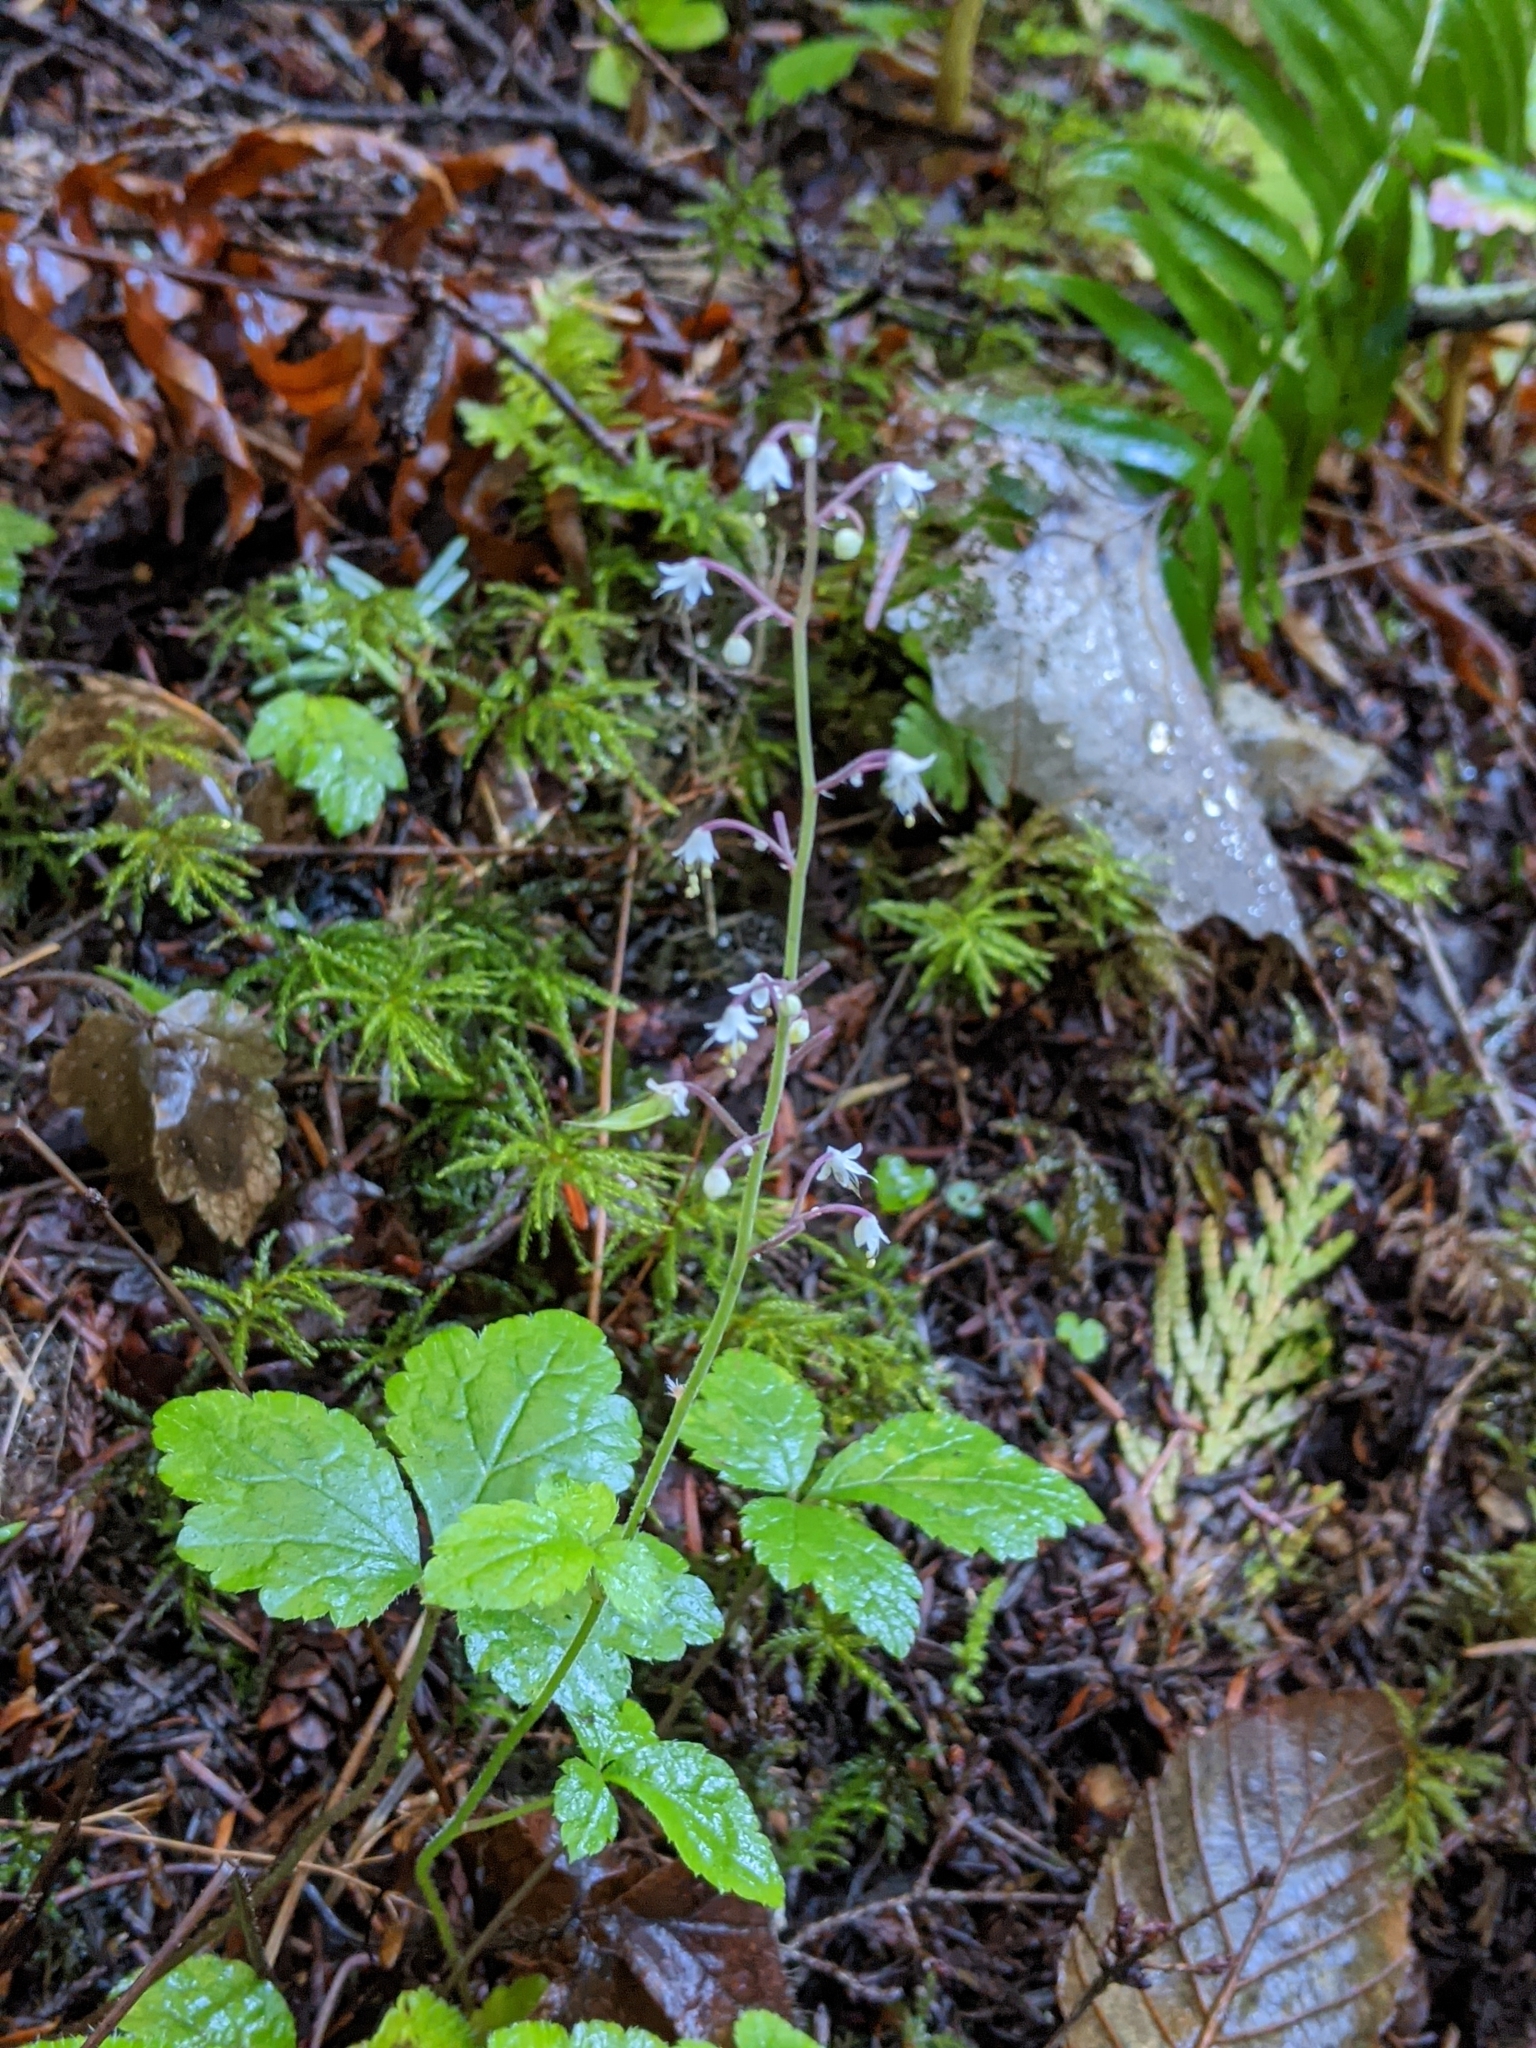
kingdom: Plantae
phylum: Tracheophyta
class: Magnoliopsida
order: Saxifragales
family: Saxifragaceae
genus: Tiarella
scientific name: Tiarella trifoliata
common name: Sugar-scoop
